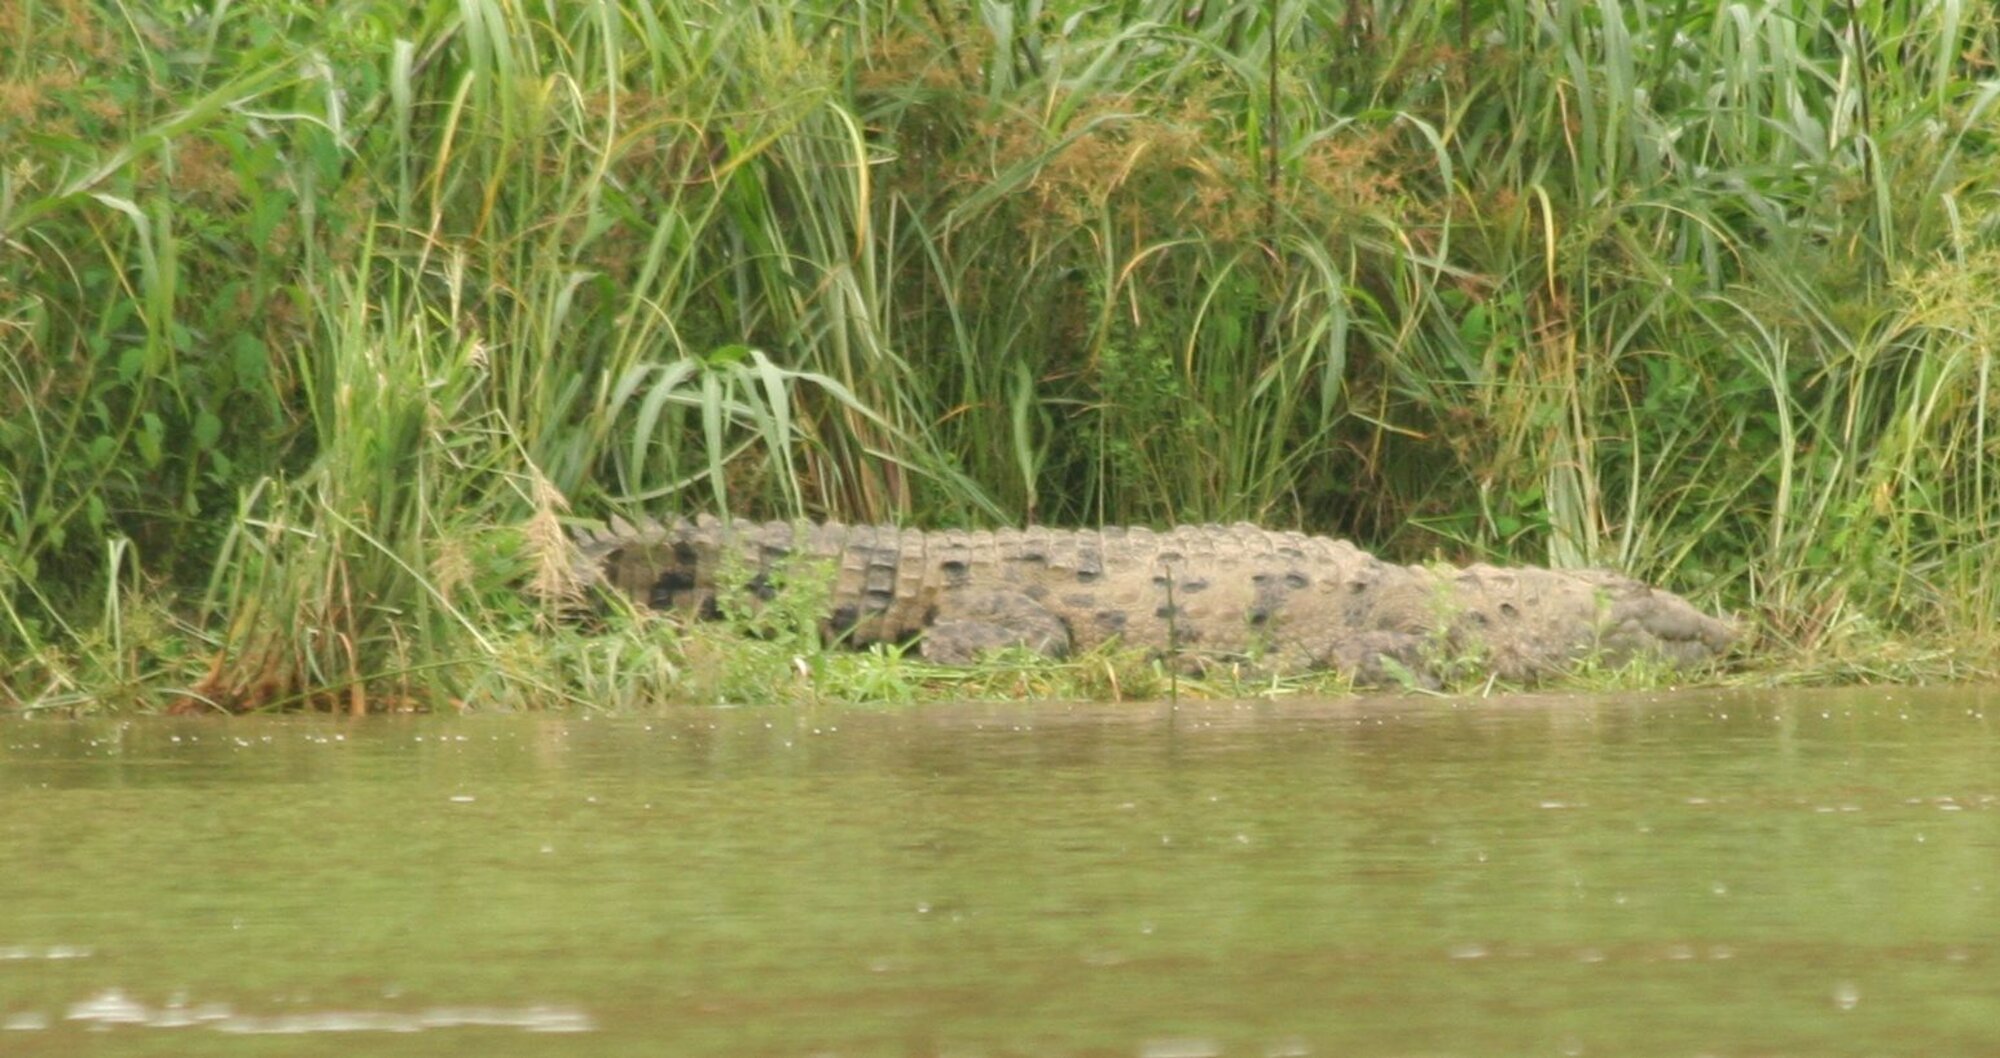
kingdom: Animalia
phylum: Chordata
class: Crocodylia
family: Crocodylidae
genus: Crocodylus
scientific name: Crocodylus acutus
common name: American crocodile
